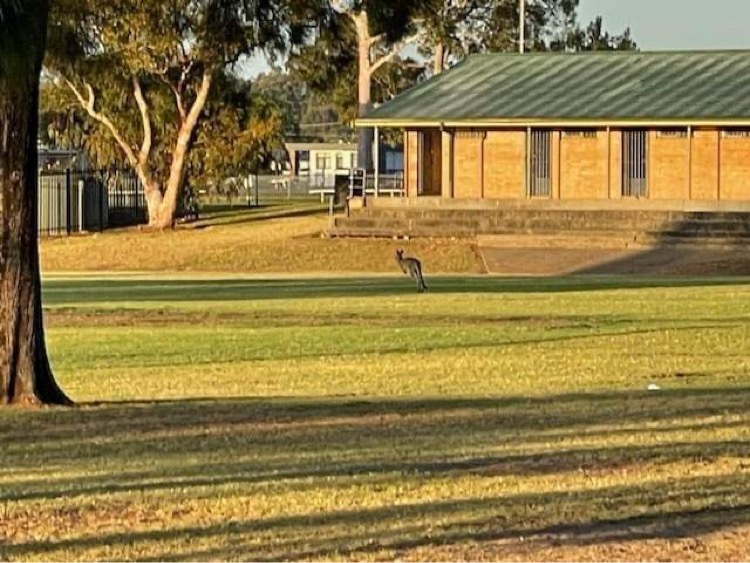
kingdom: Animalia
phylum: Chordata
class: Mammalia
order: Diprotodontia
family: Macropodidae
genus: Macropus
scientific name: Macropus giganteus
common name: Eastern grey kangaroo
